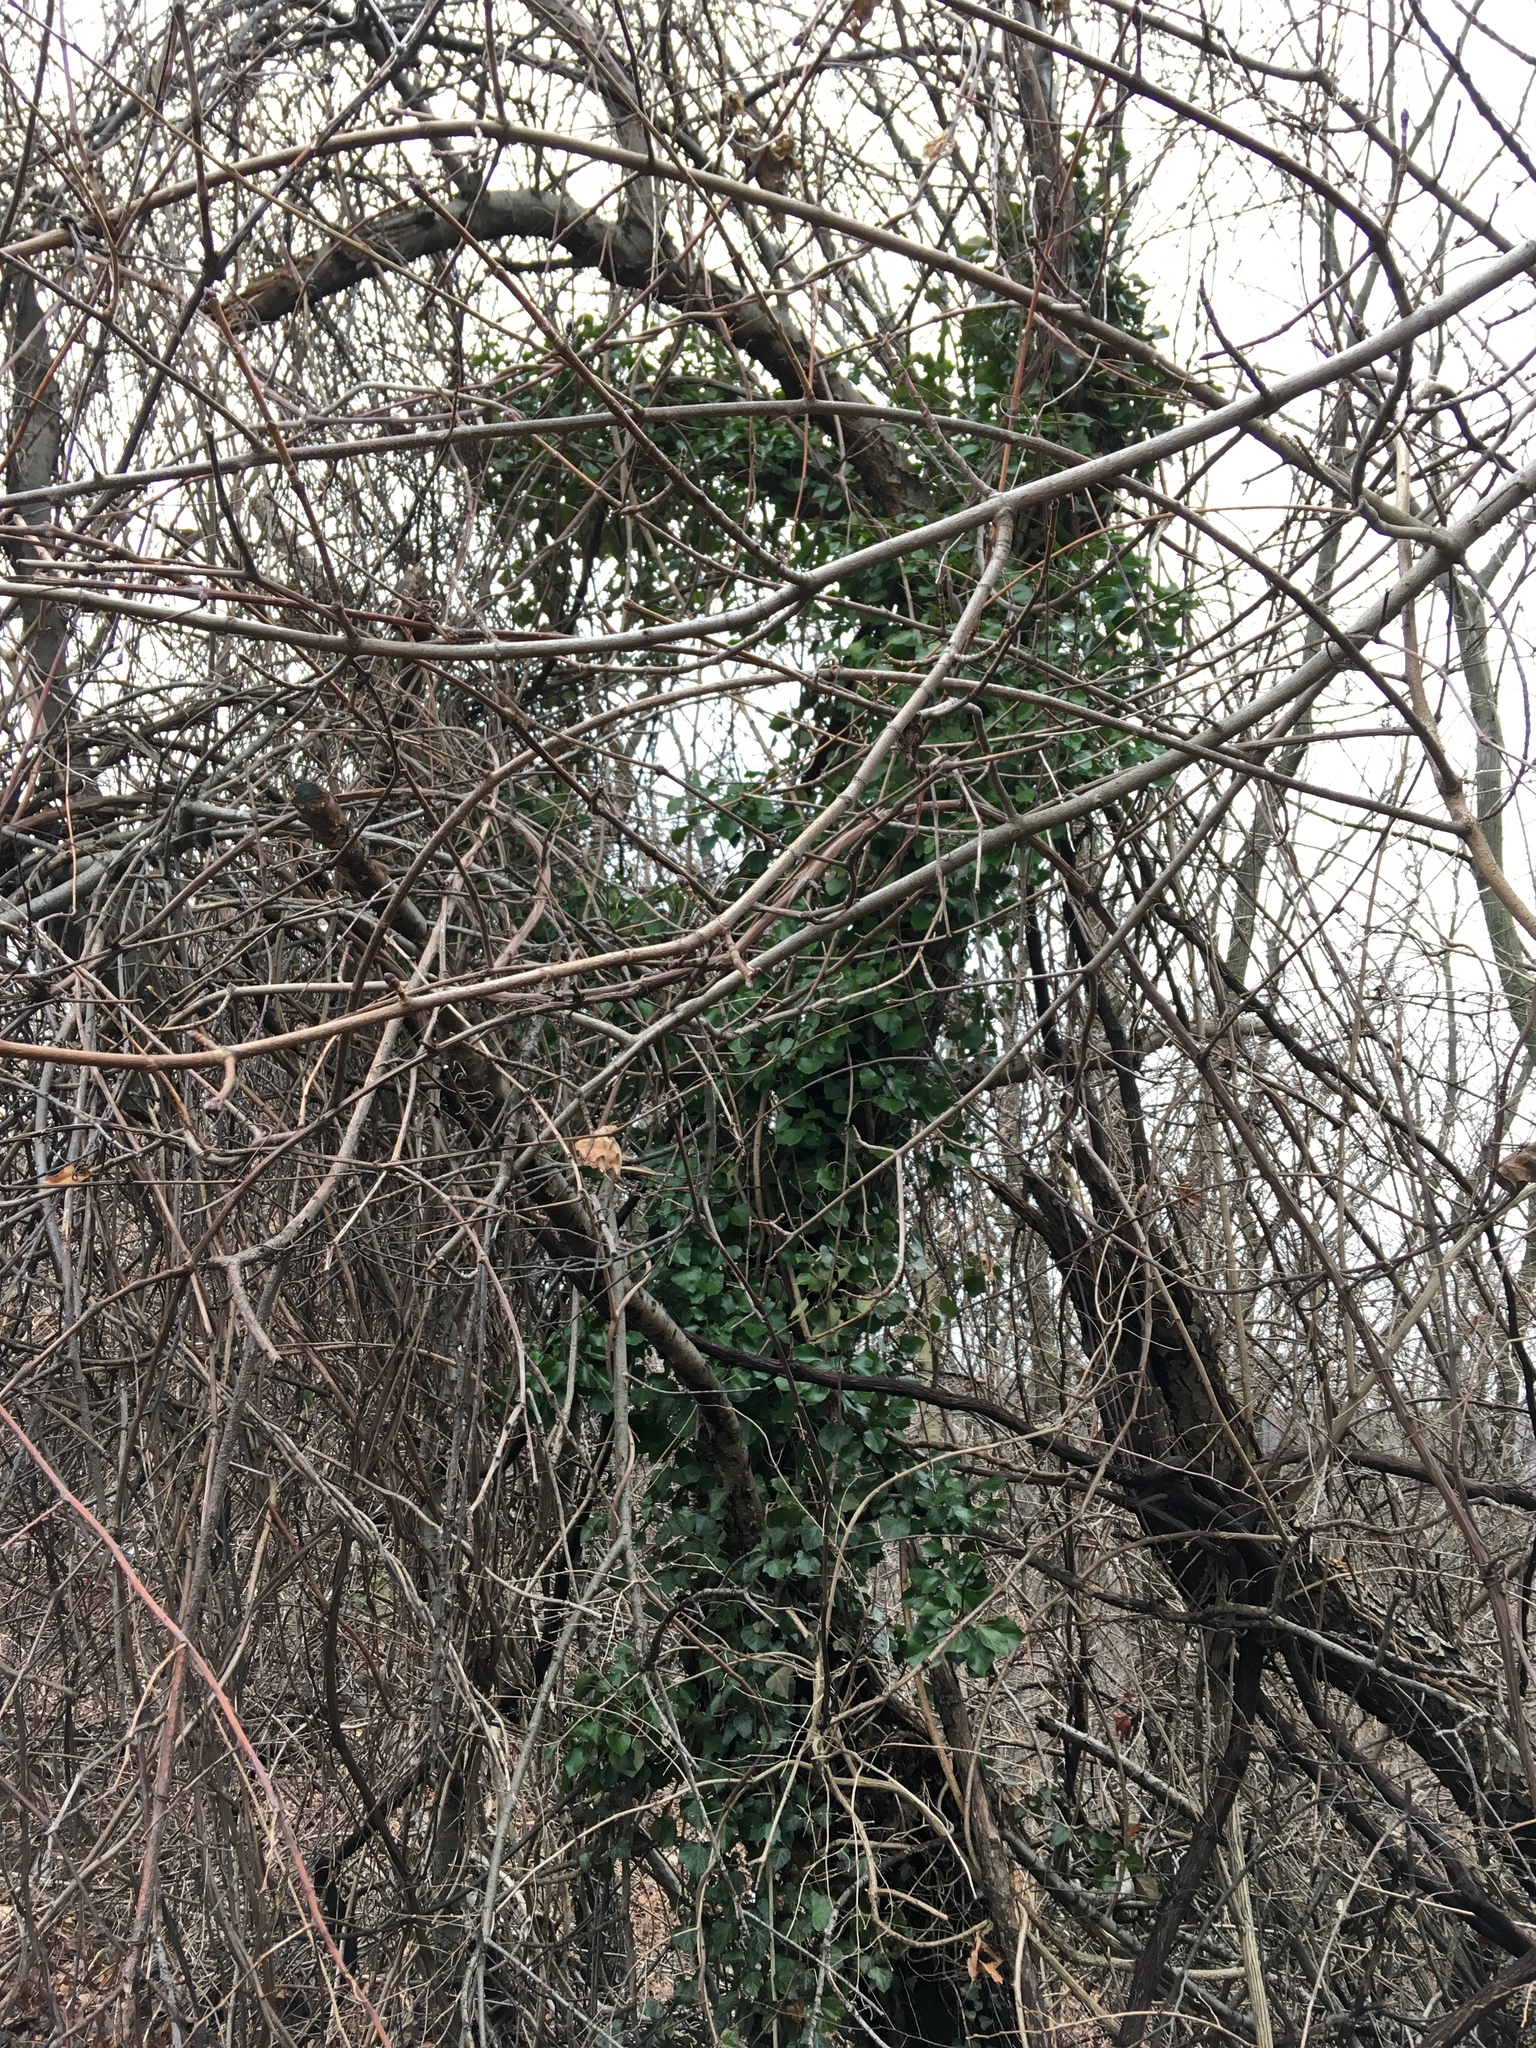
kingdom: Plantae
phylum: Tracheophyta
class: Magnoliopsida
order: Apiales
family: Araliaceae
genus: Hedera
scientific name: Hedera helix
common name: Ivy
